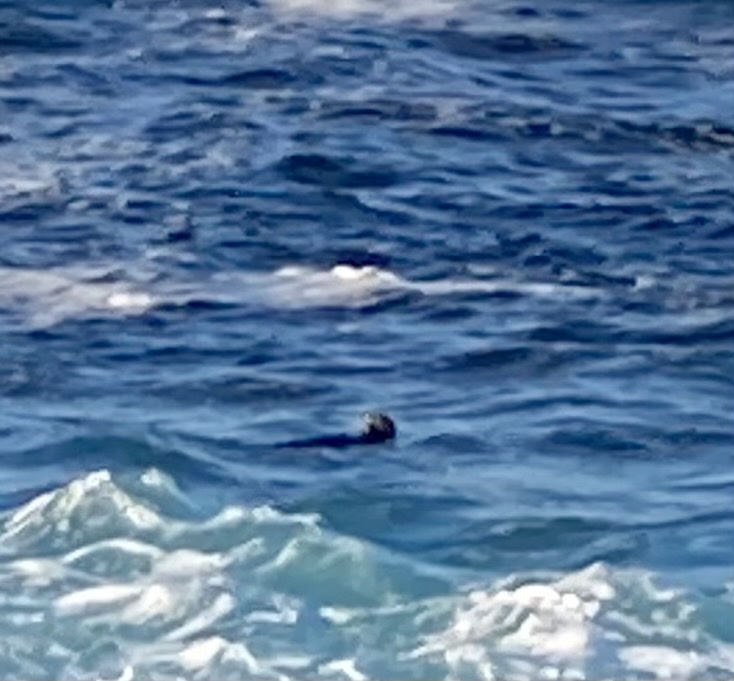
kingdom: Animalia
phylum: Chordata
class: Mammalia
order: Carnivora
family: Mustelidae
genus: Enhydra
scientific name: Enhydra lutris
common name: Sea otter
